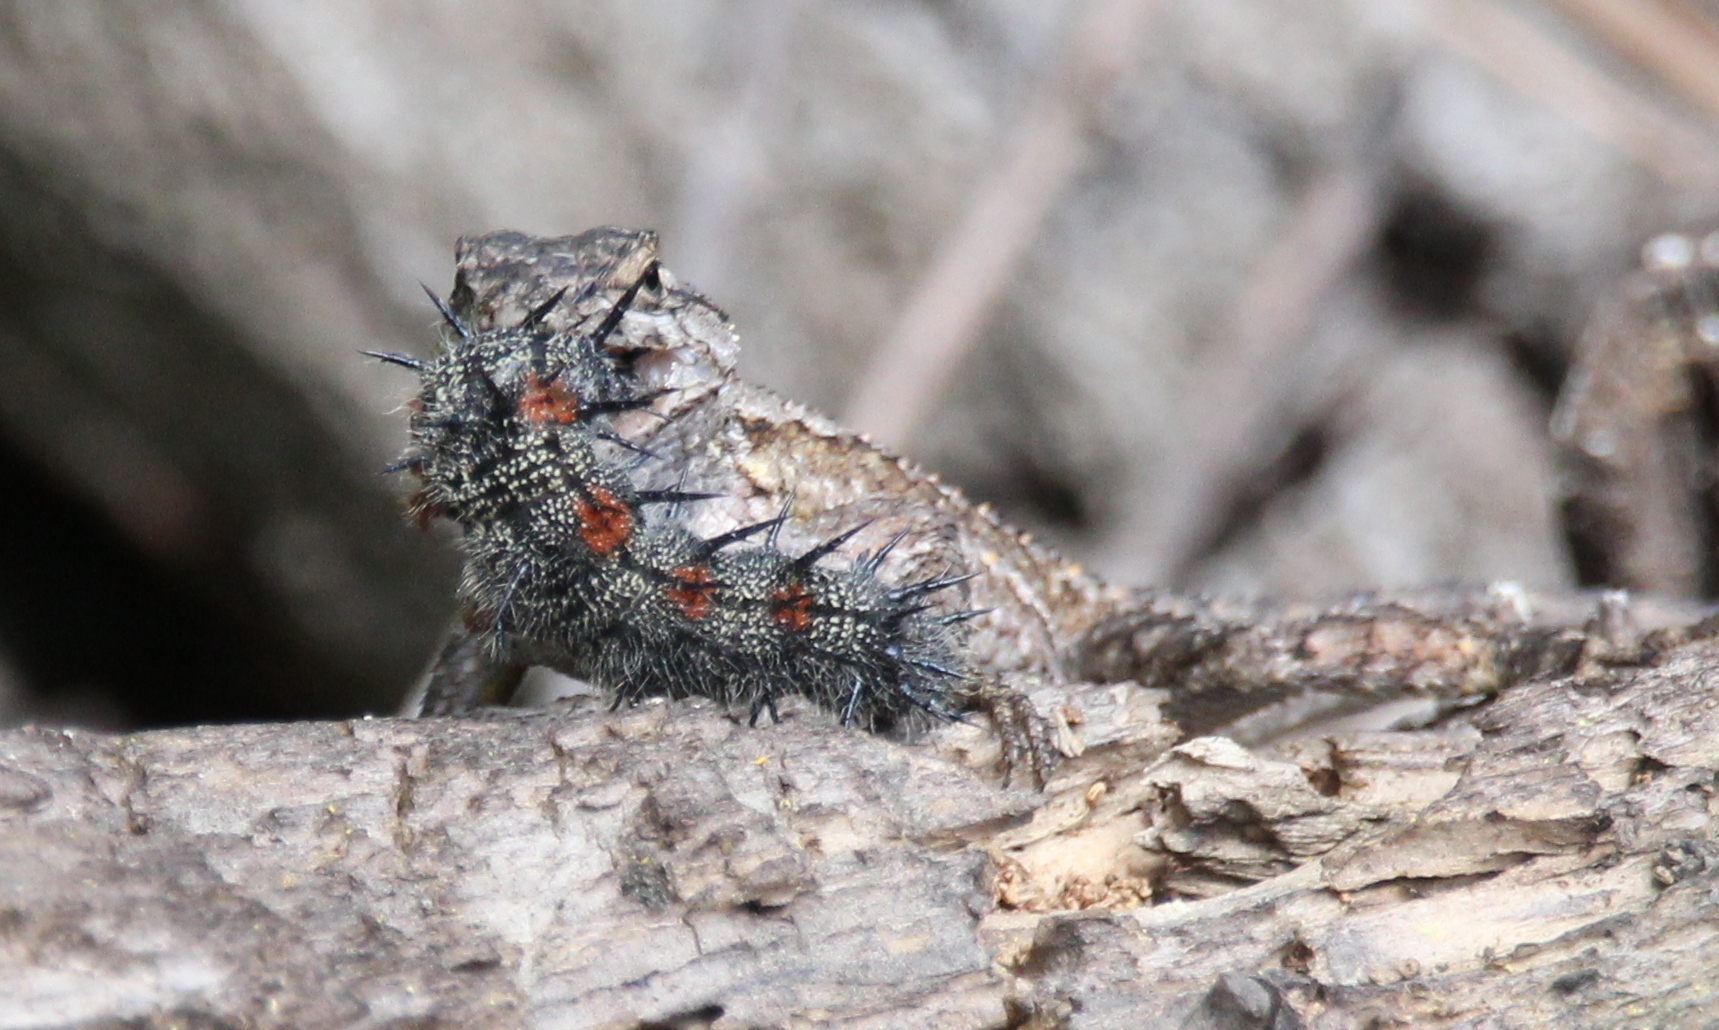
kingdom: Animalia
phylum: Arthropoda
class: Insecta
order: Lepidoptera
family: Nymphalidae
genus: Nymphalis
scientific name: Nymphalis antiopa
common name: Camberwell beauty
